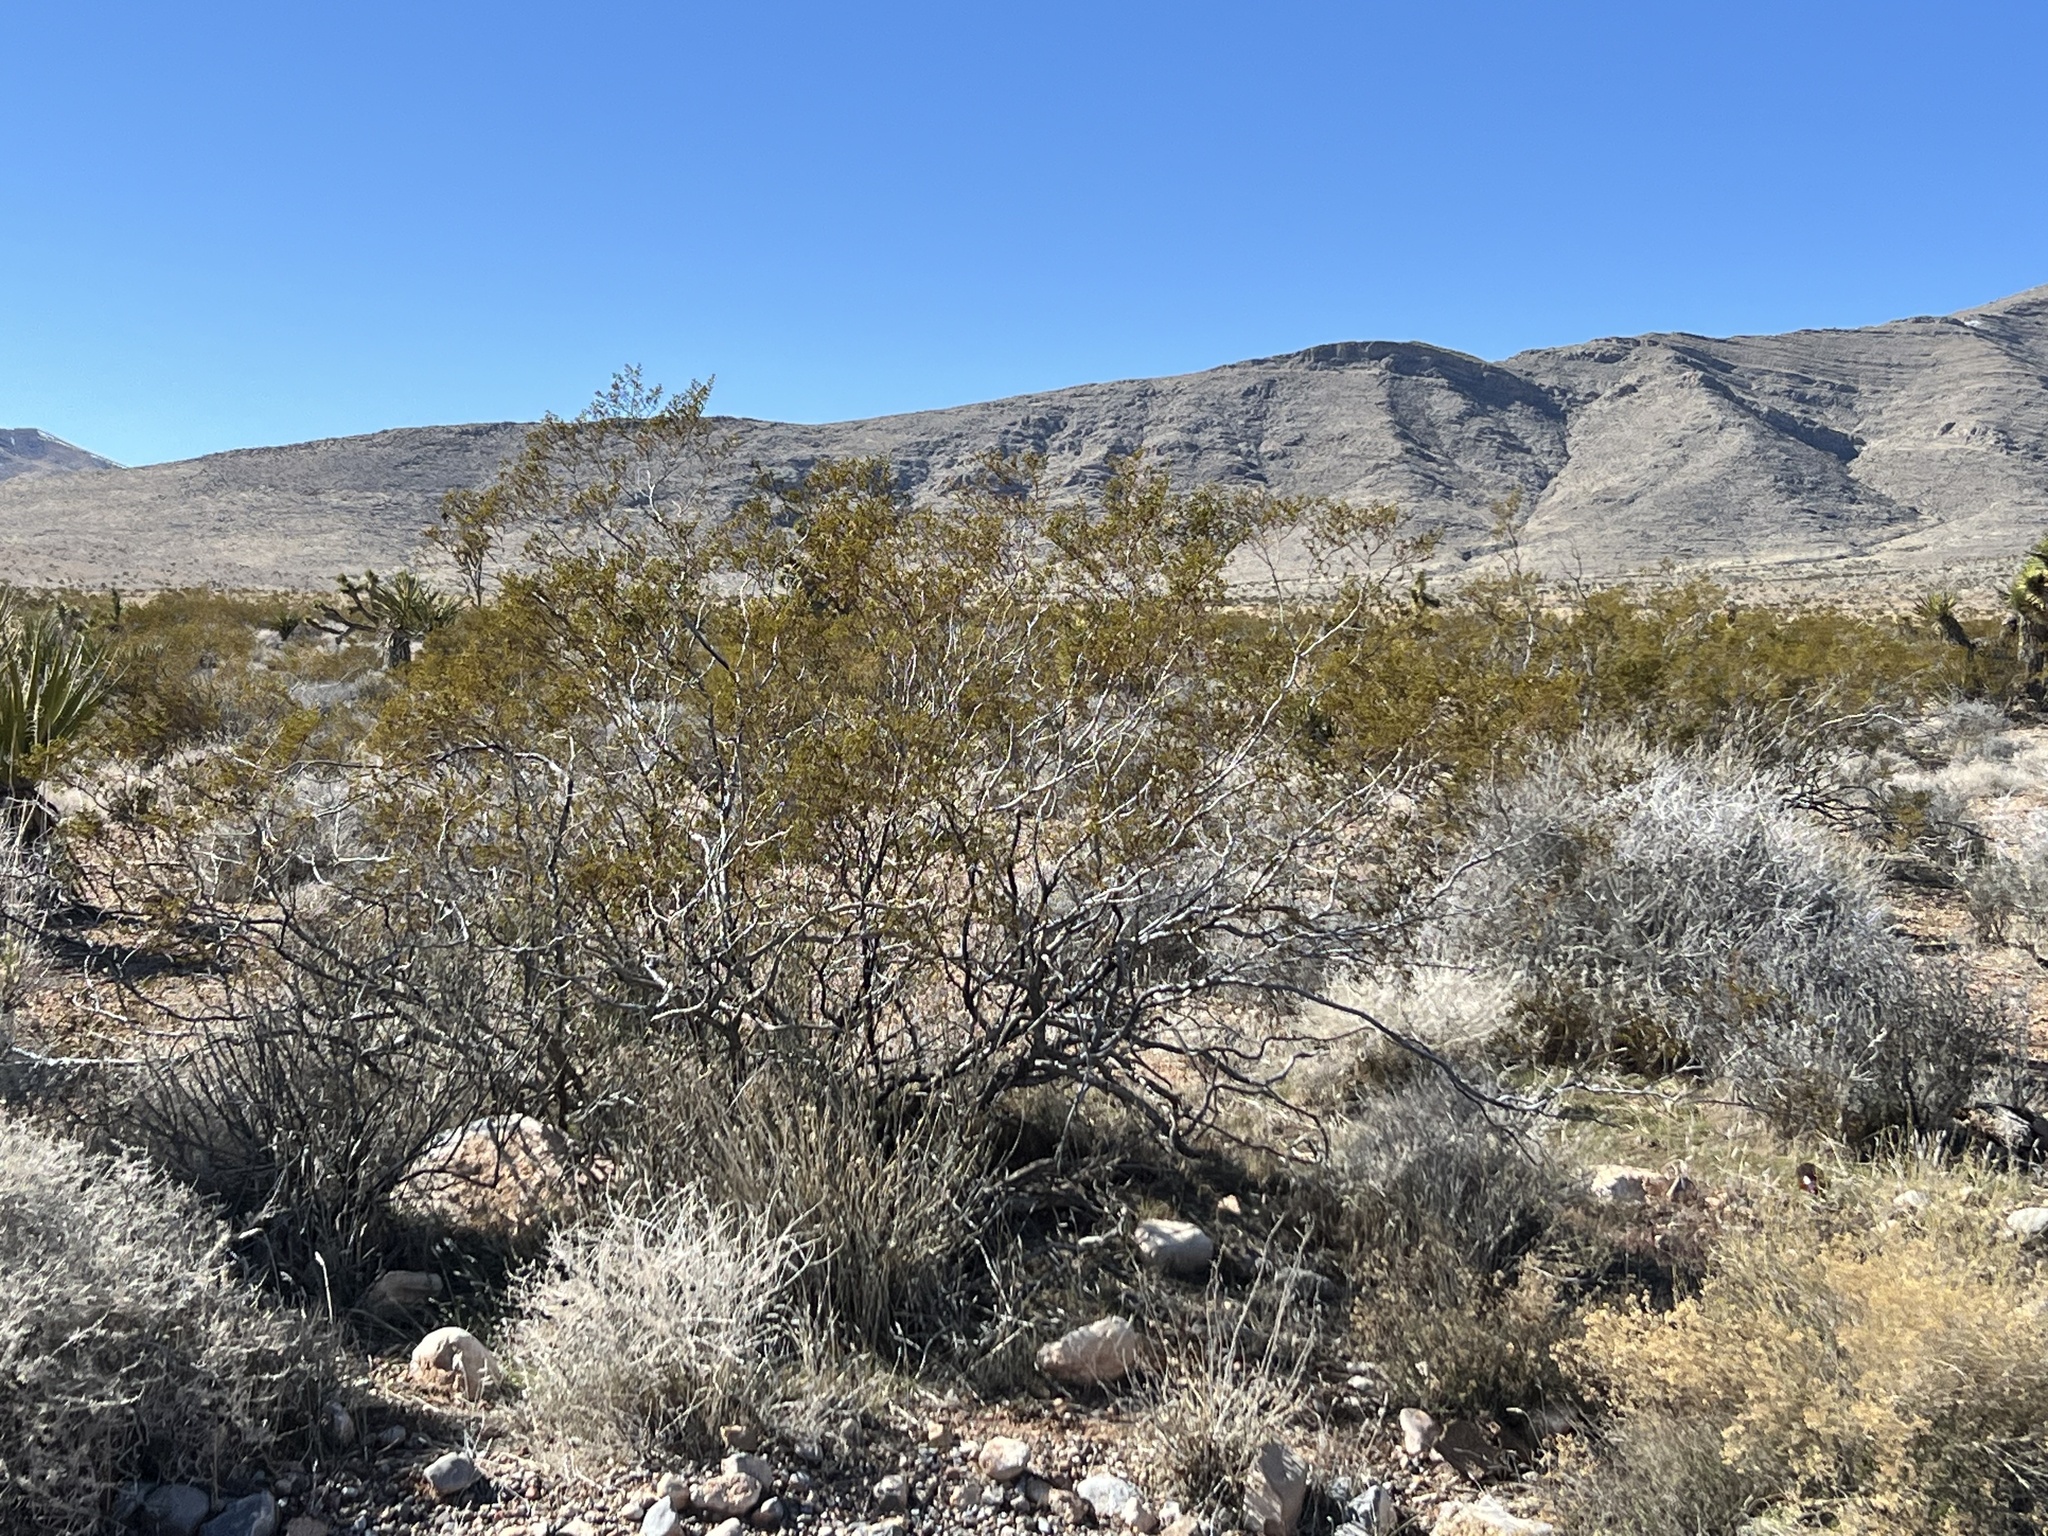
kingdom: Plantae
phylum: Tracheophyta
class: Magnoliopsida
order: Zygophyllales
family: Zygophyllaceae
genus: Larrea
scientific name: Larrea tridentata
